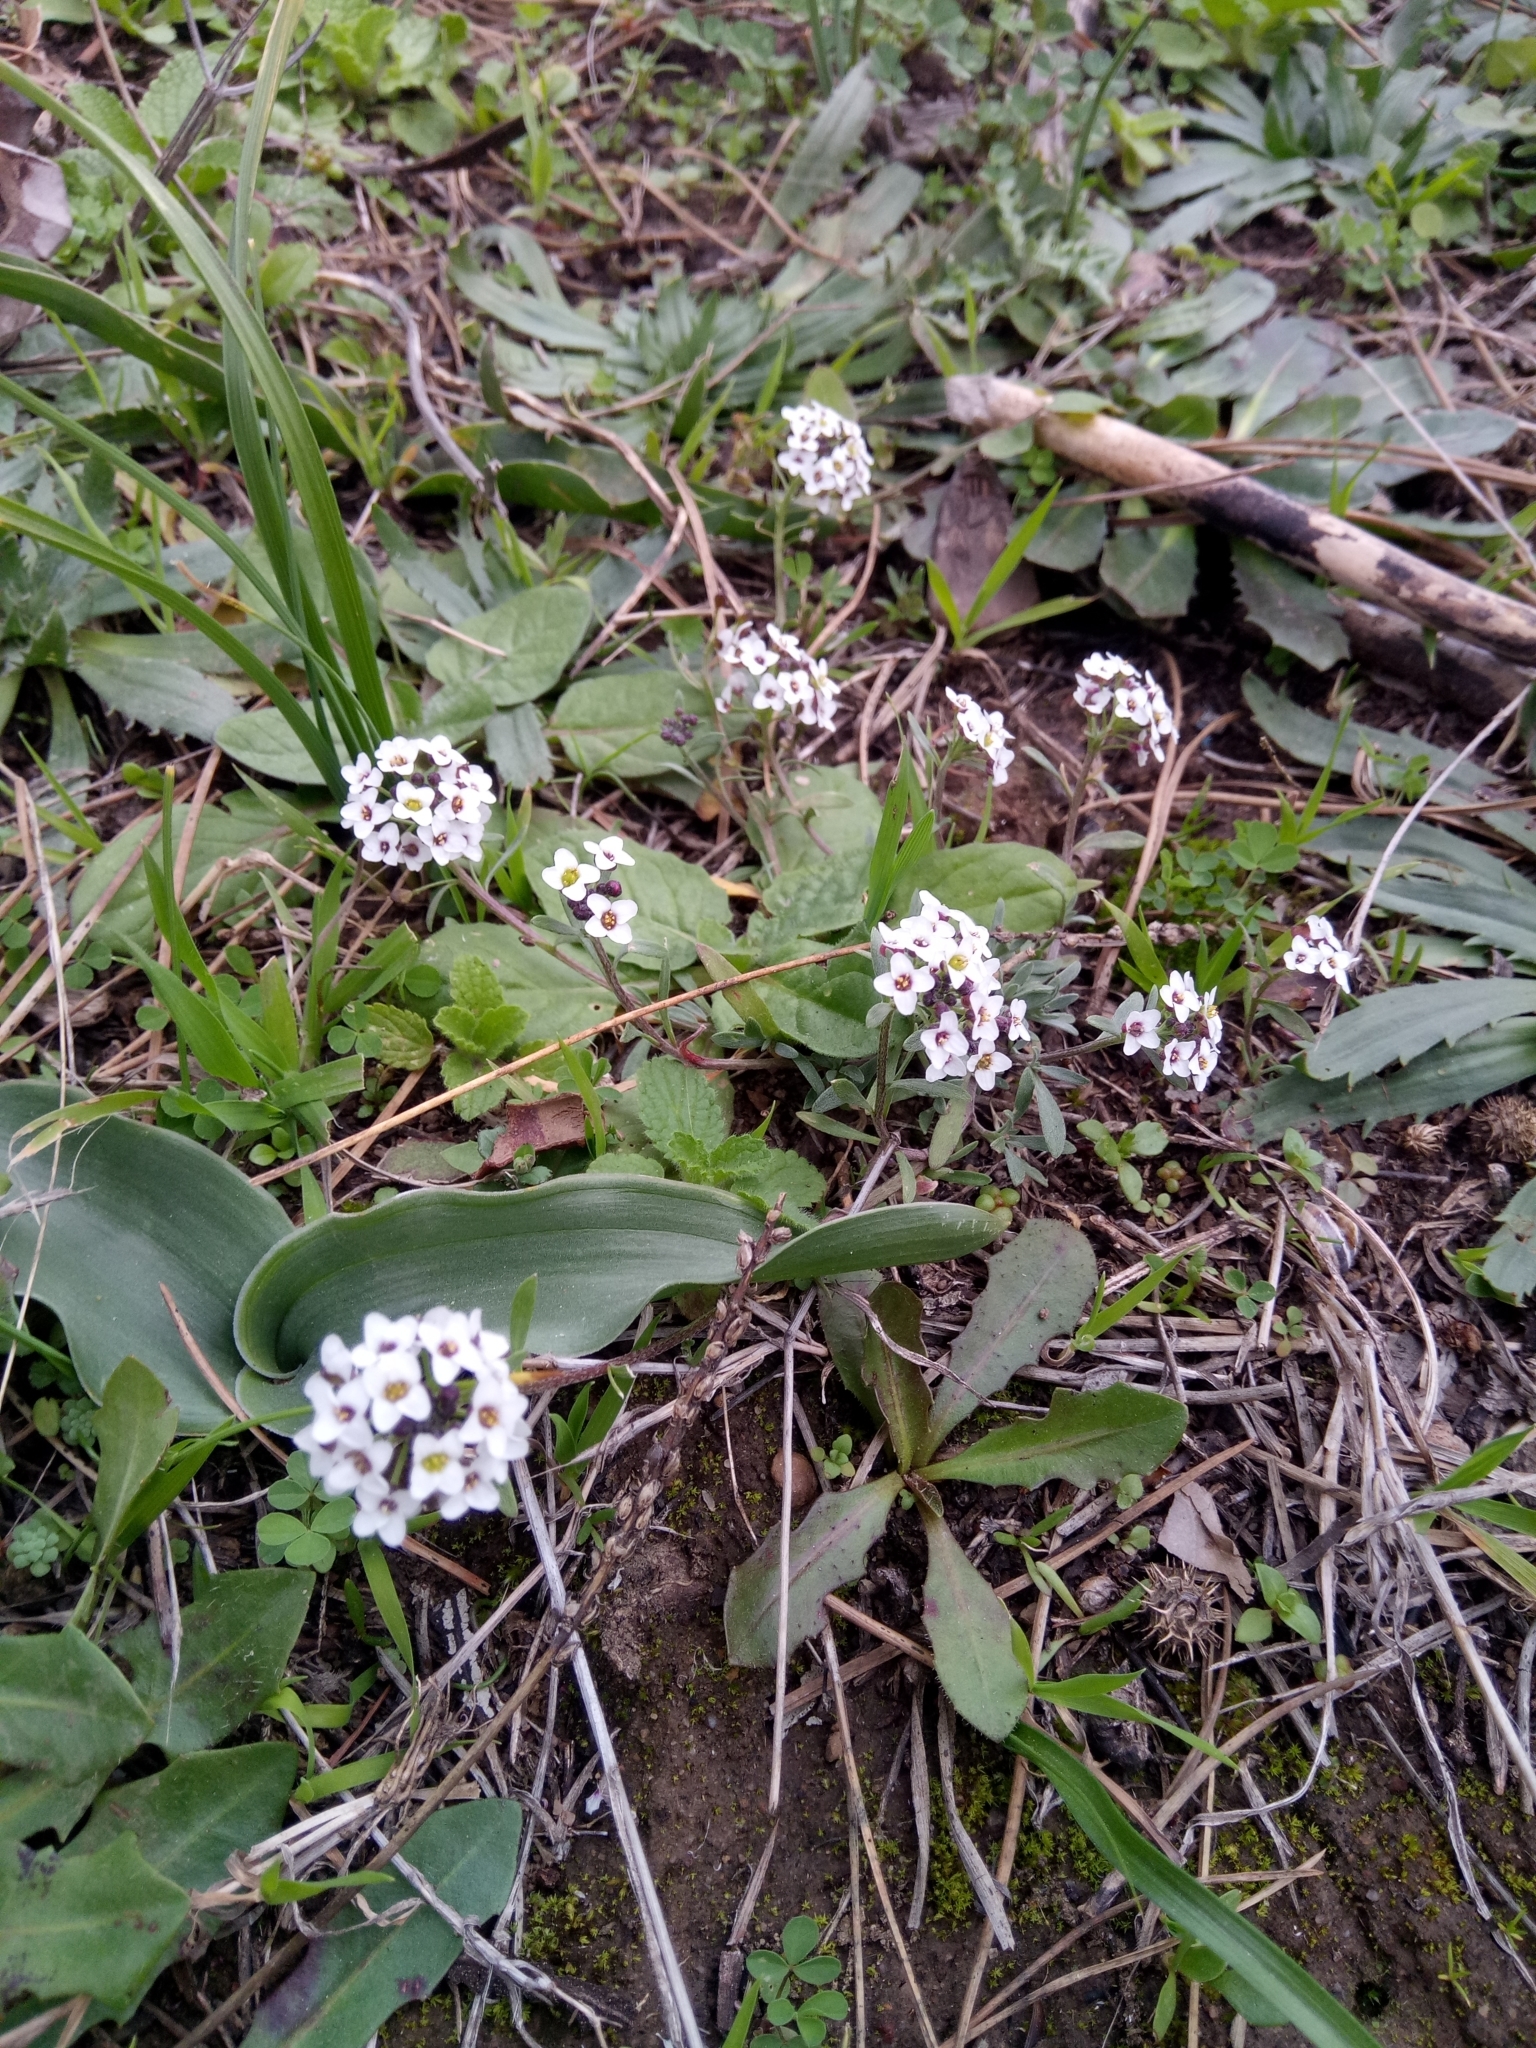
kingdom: Plantae
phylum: Tracheophyta
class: Magnoliopsida
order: Brassicales
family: Brassicaceae
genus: Lobularia
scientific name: Lobularia maritima
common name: Sweet alison
